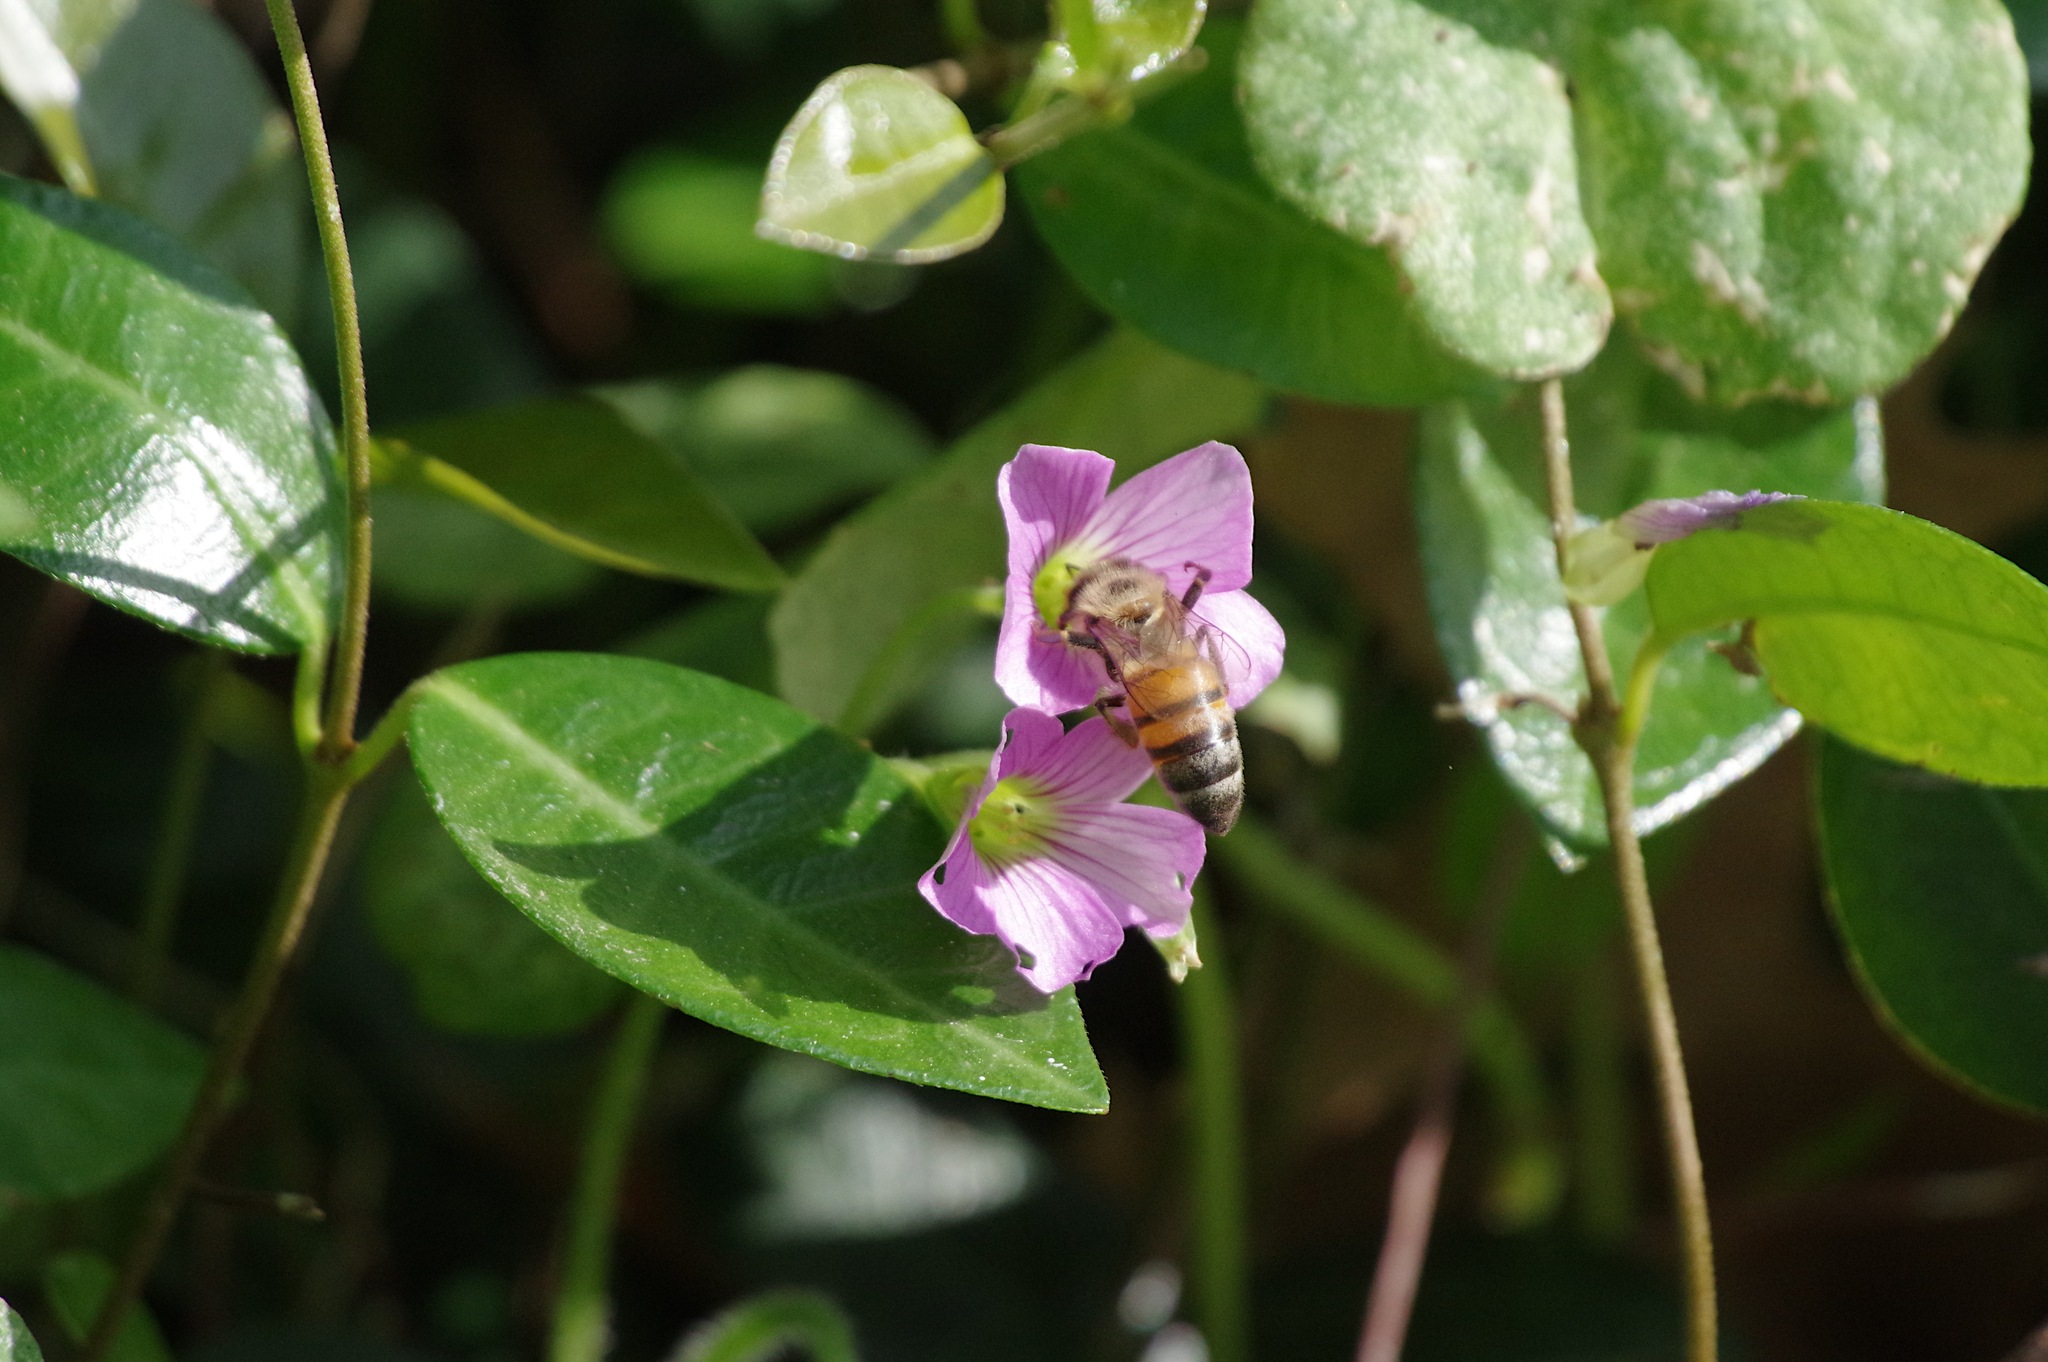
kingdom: Animalia
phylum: Arthropoda
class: Insecta
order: Hymenoptera
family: Apidae
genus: Apis
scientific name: Apis mellifera
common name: Honey bee
